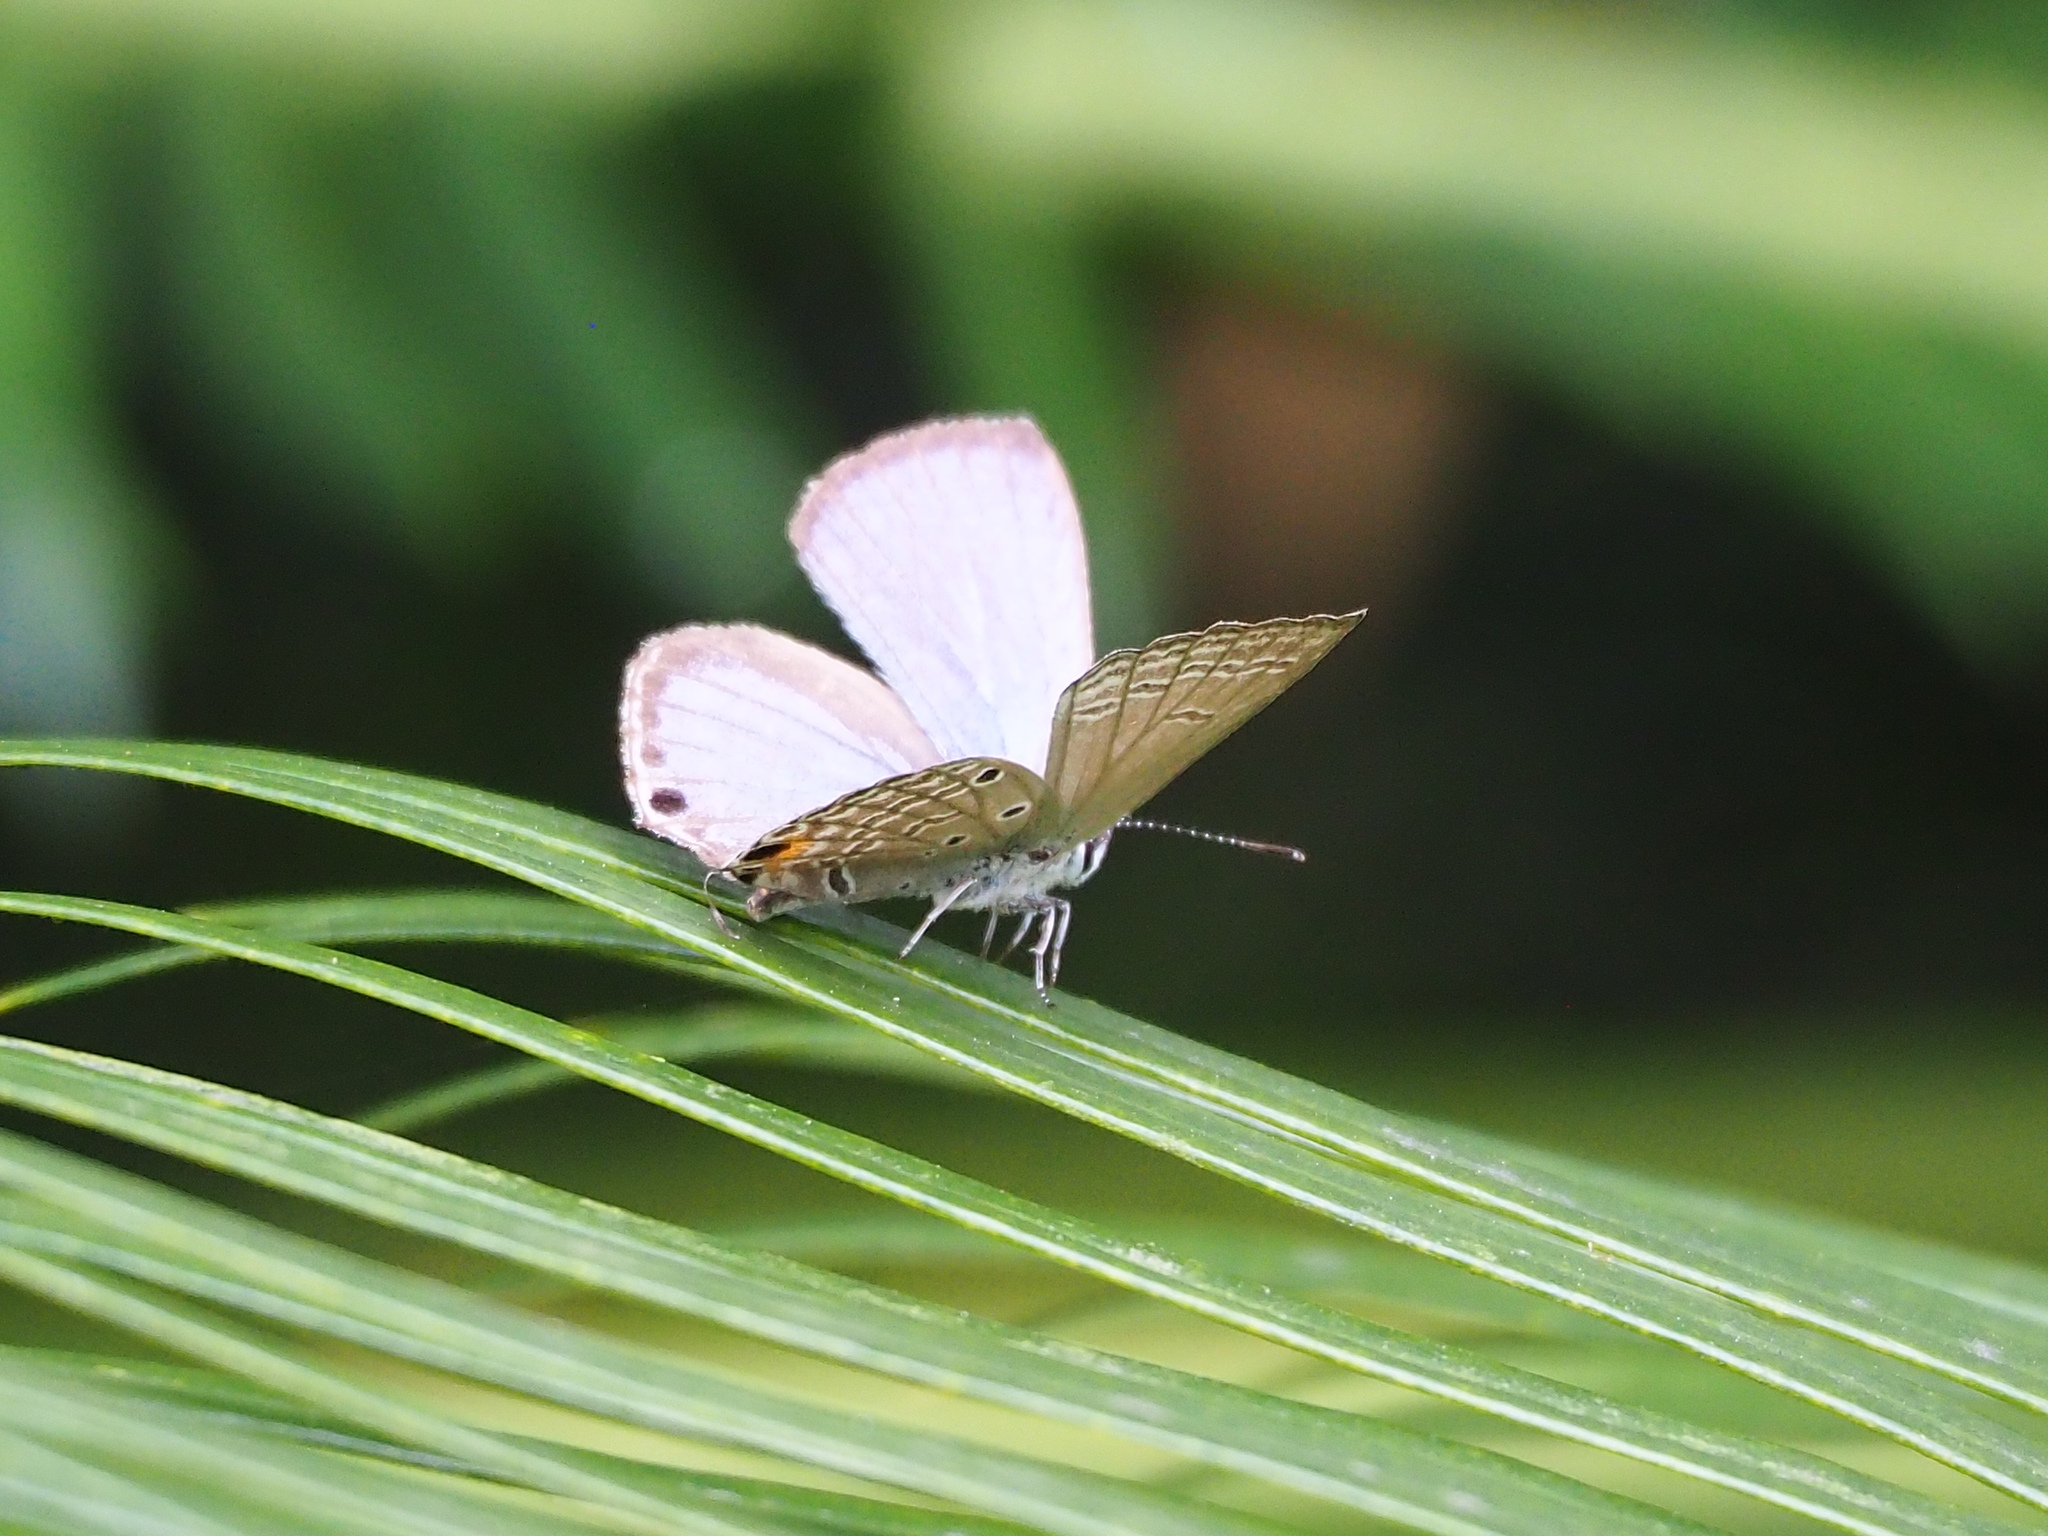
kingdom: Animalia
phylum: Arthropoda
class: Insecta
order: Lepidoptera
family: Lycaenidae
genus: Luthrodes
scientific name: Luthrodes pandava
